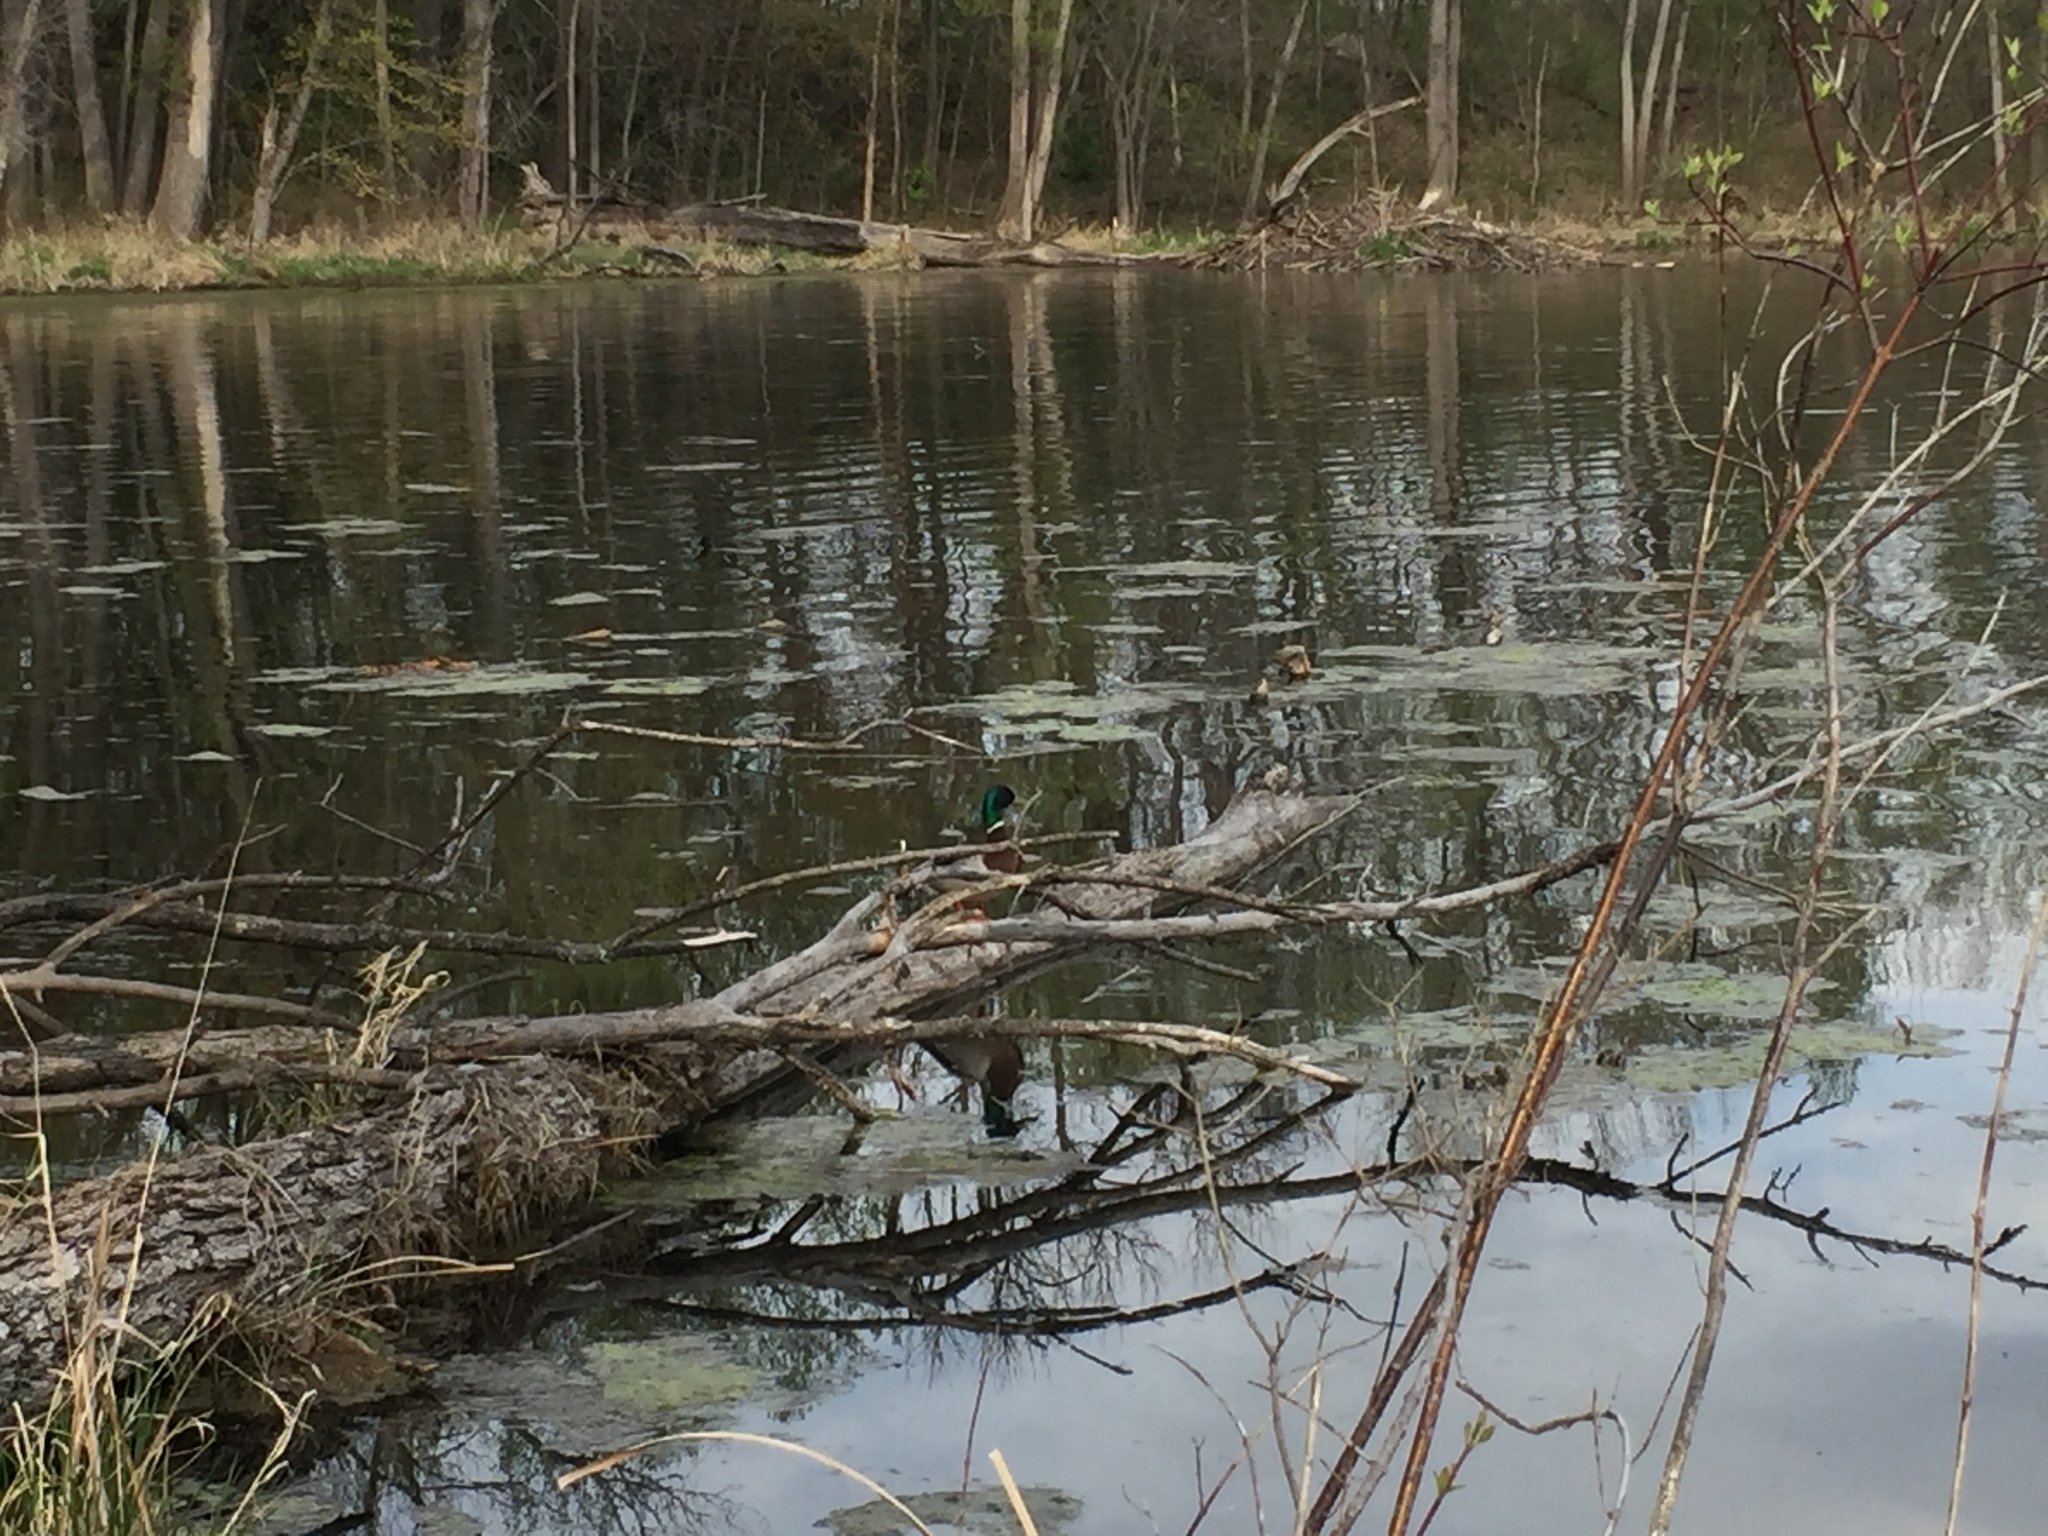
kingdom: Animalia
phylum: Chordata
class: Aves
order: Anseriformes
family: Anatidae
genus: Anas
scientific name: Anas platyrhynchos
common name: Mallard
